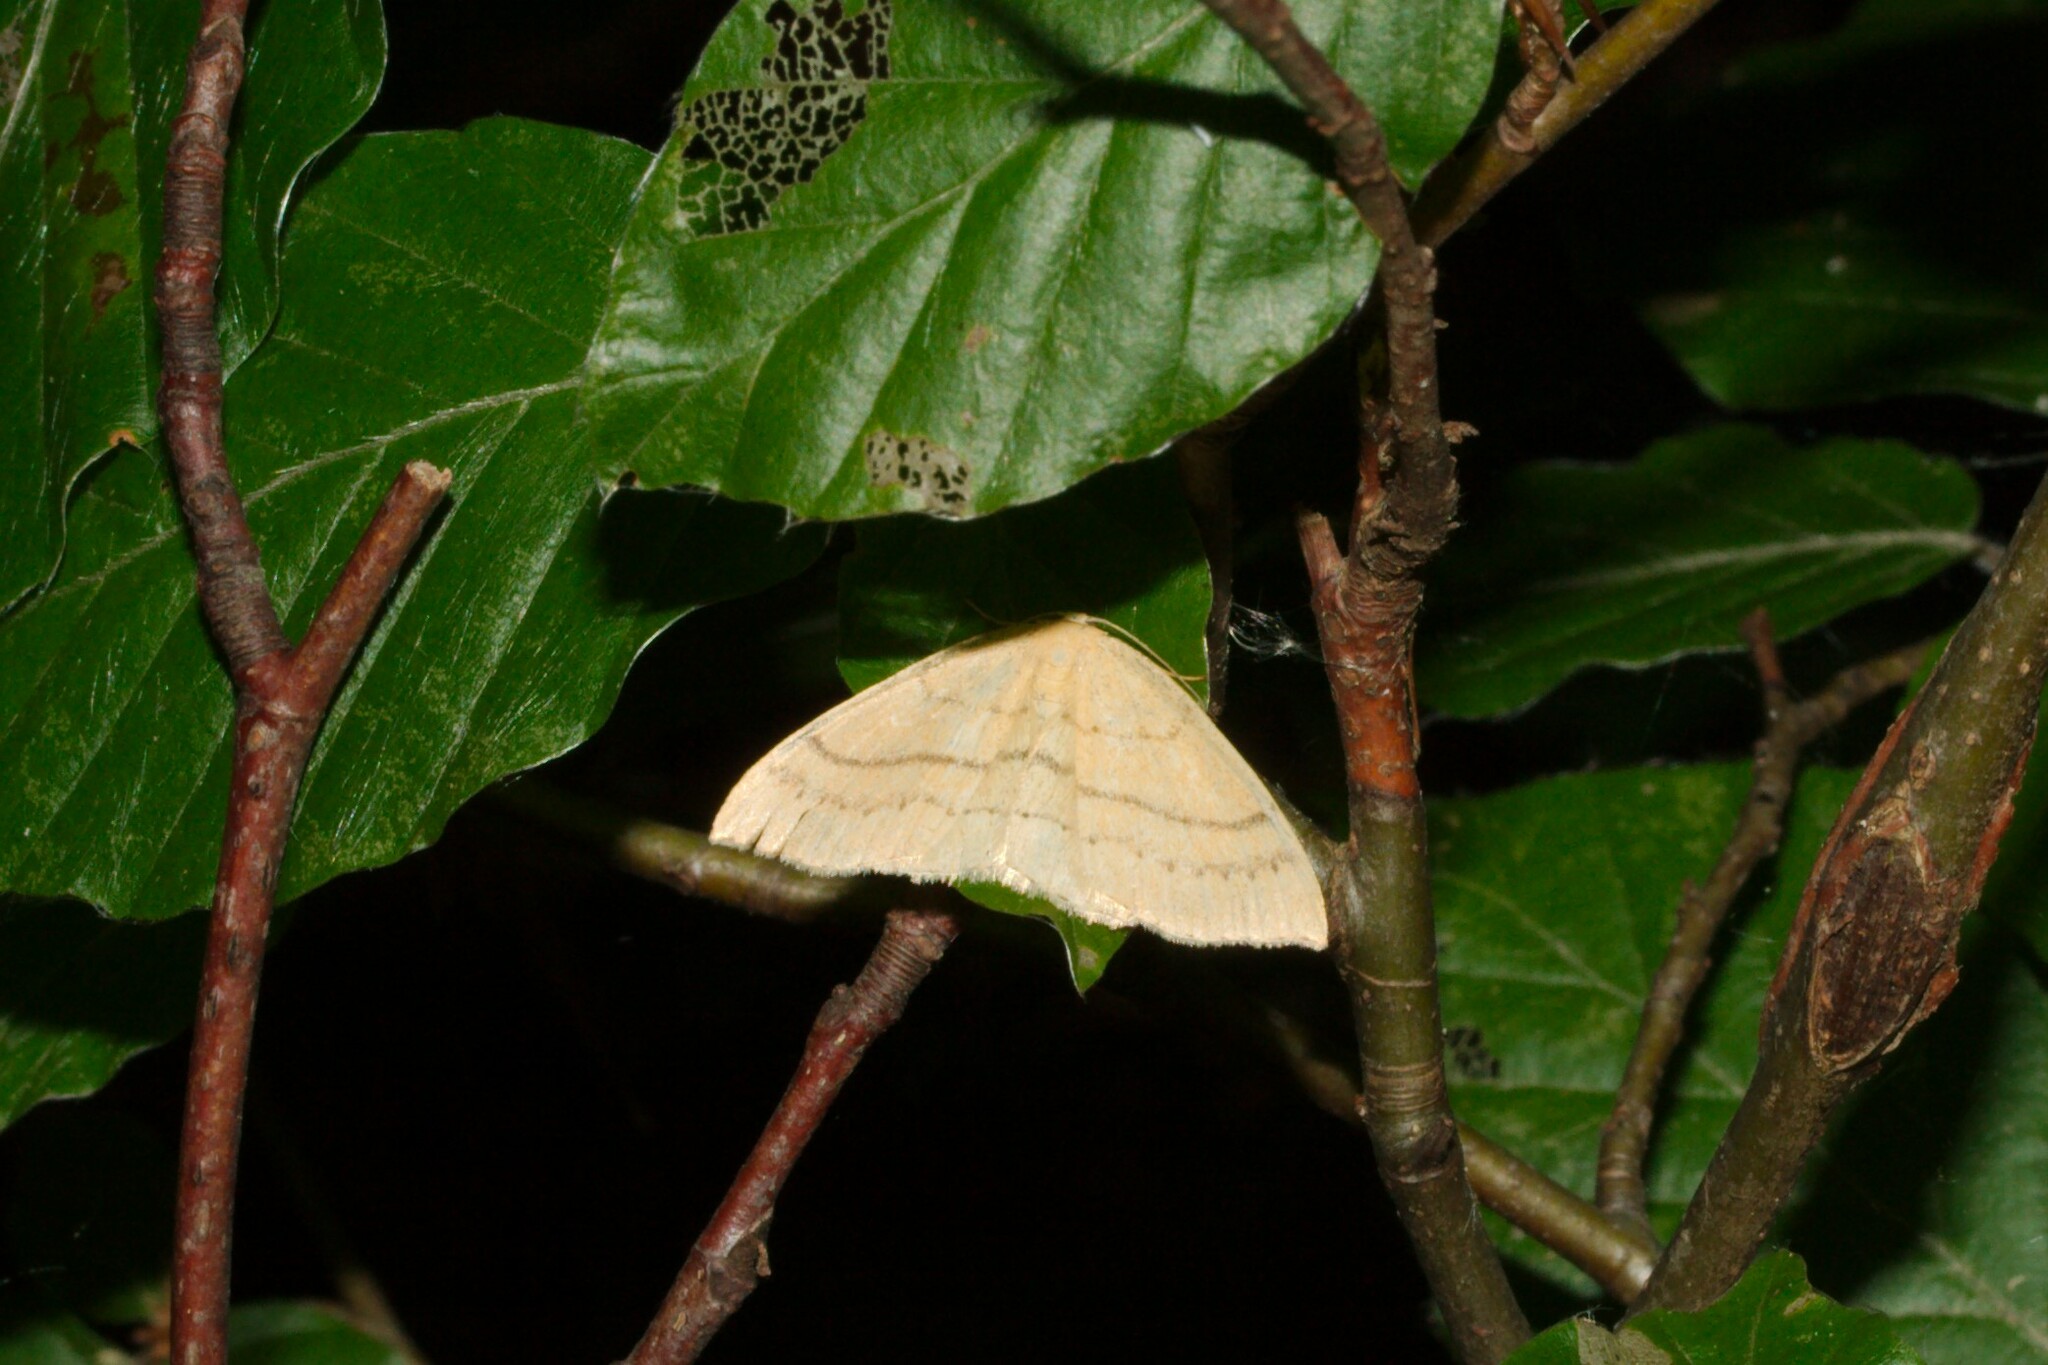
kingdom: Animalia
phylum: Arthropoda
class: Insecta
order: Lepidoptera
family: Geometridae
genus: Cyclophora
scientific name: Cyclophora linearia
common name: Clay triple-lines
